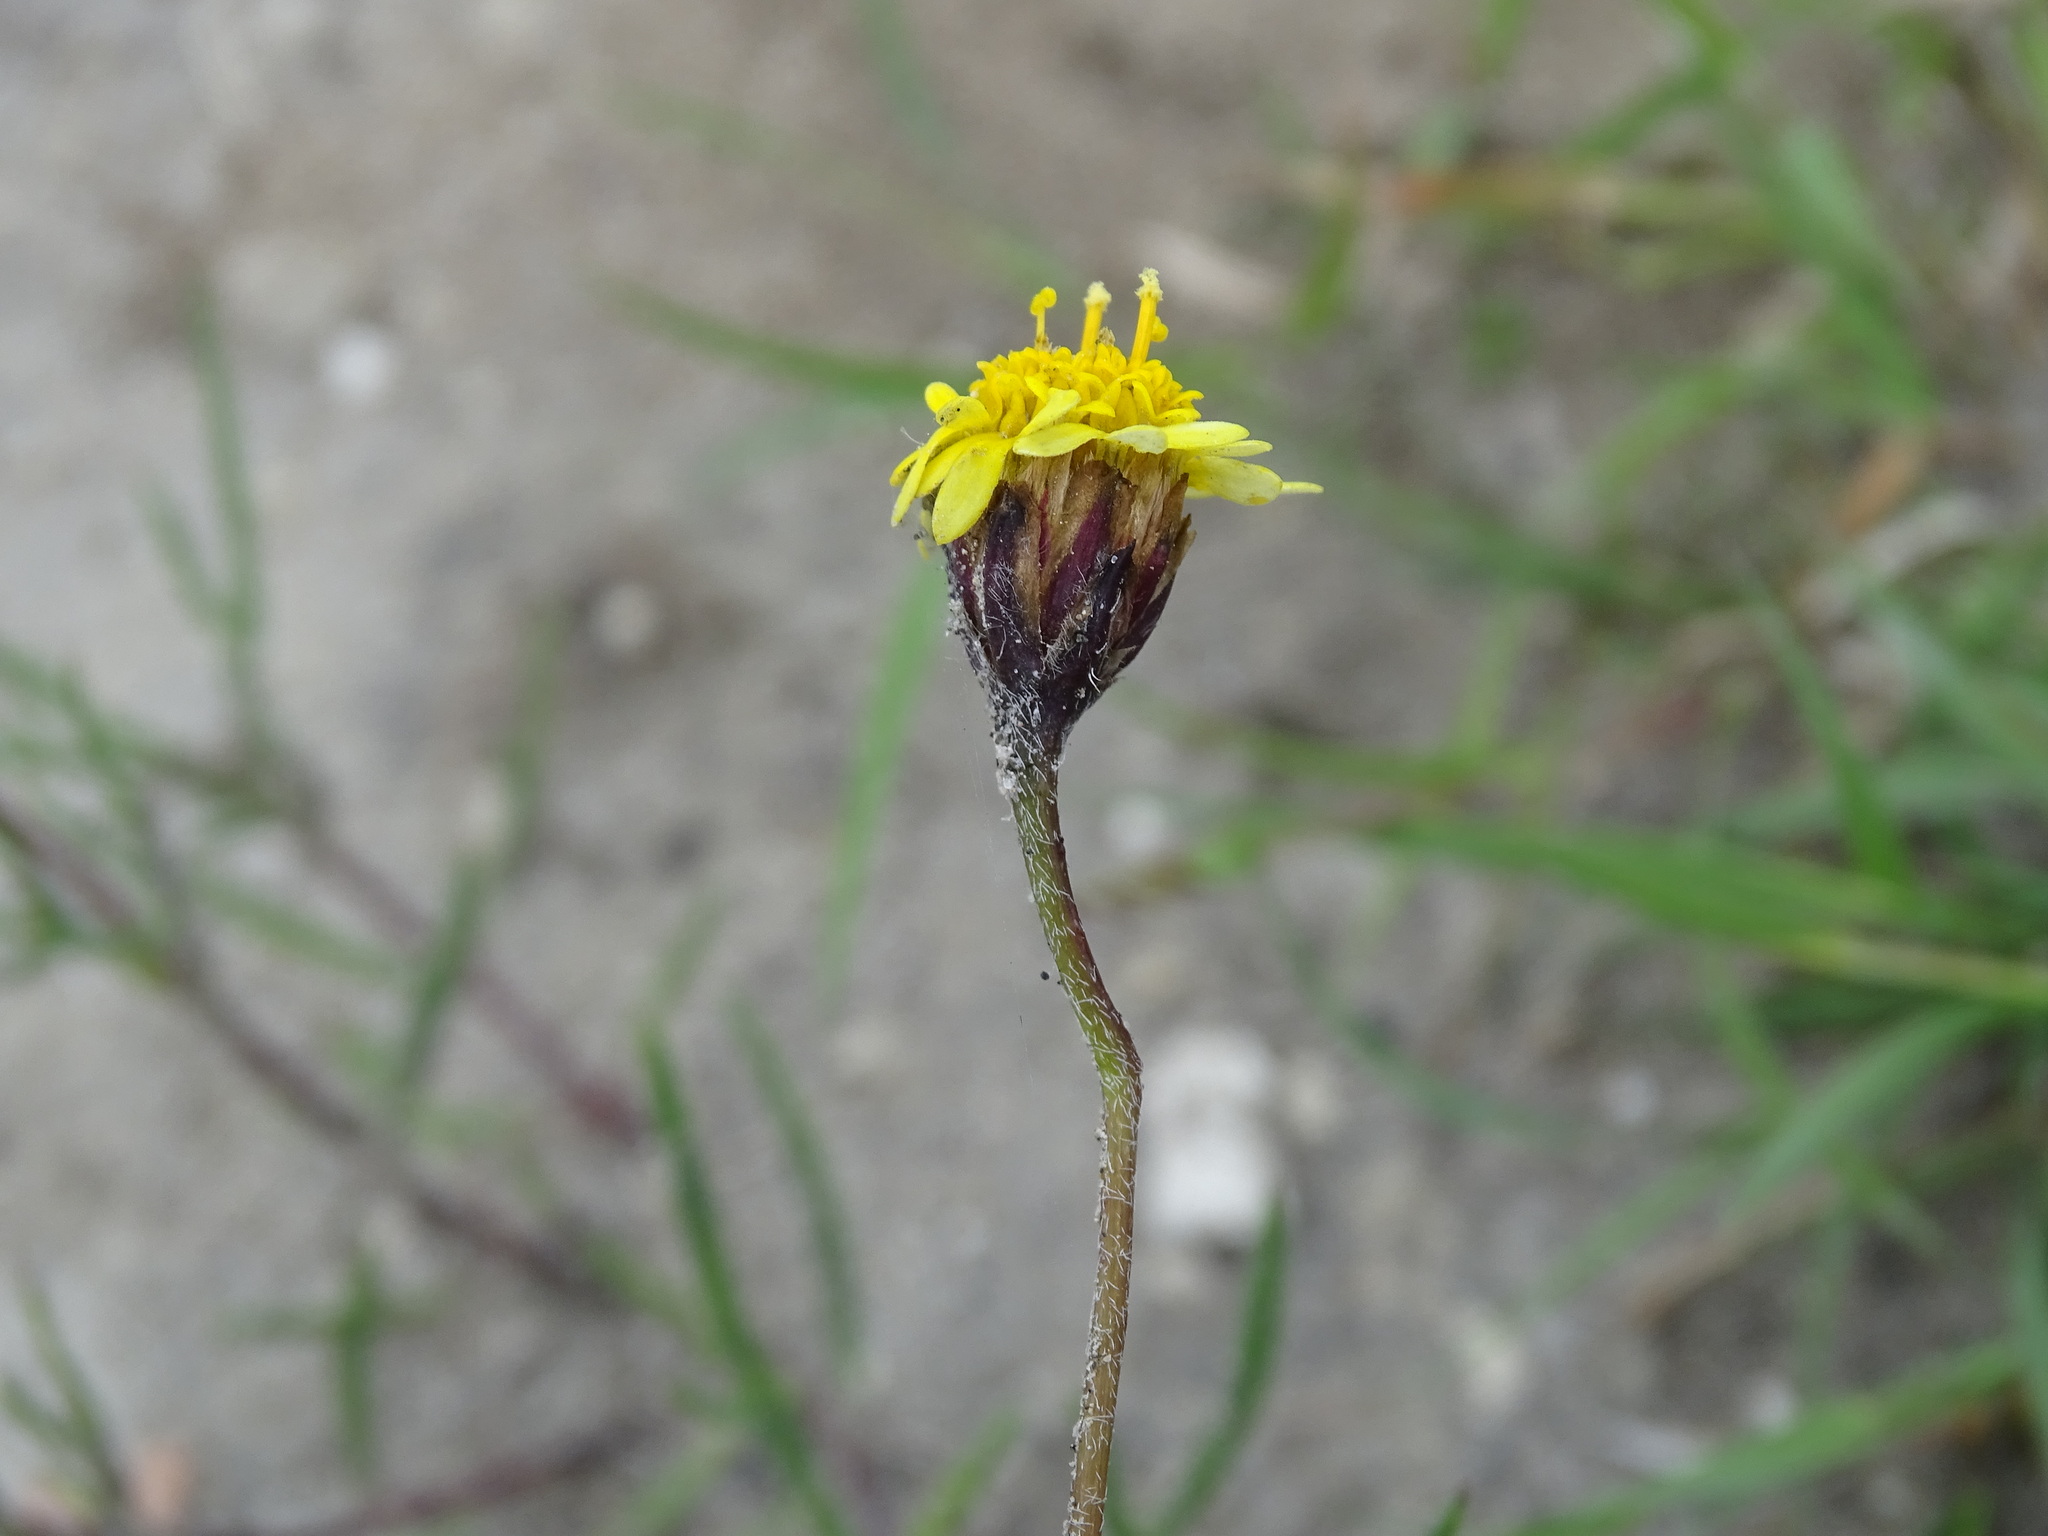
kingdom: Plantae
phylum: Tracheophyta
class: Magnoliopsida
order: Asterales
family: Asteraceae
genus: Tridax
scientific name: Tridax coronopifolia
